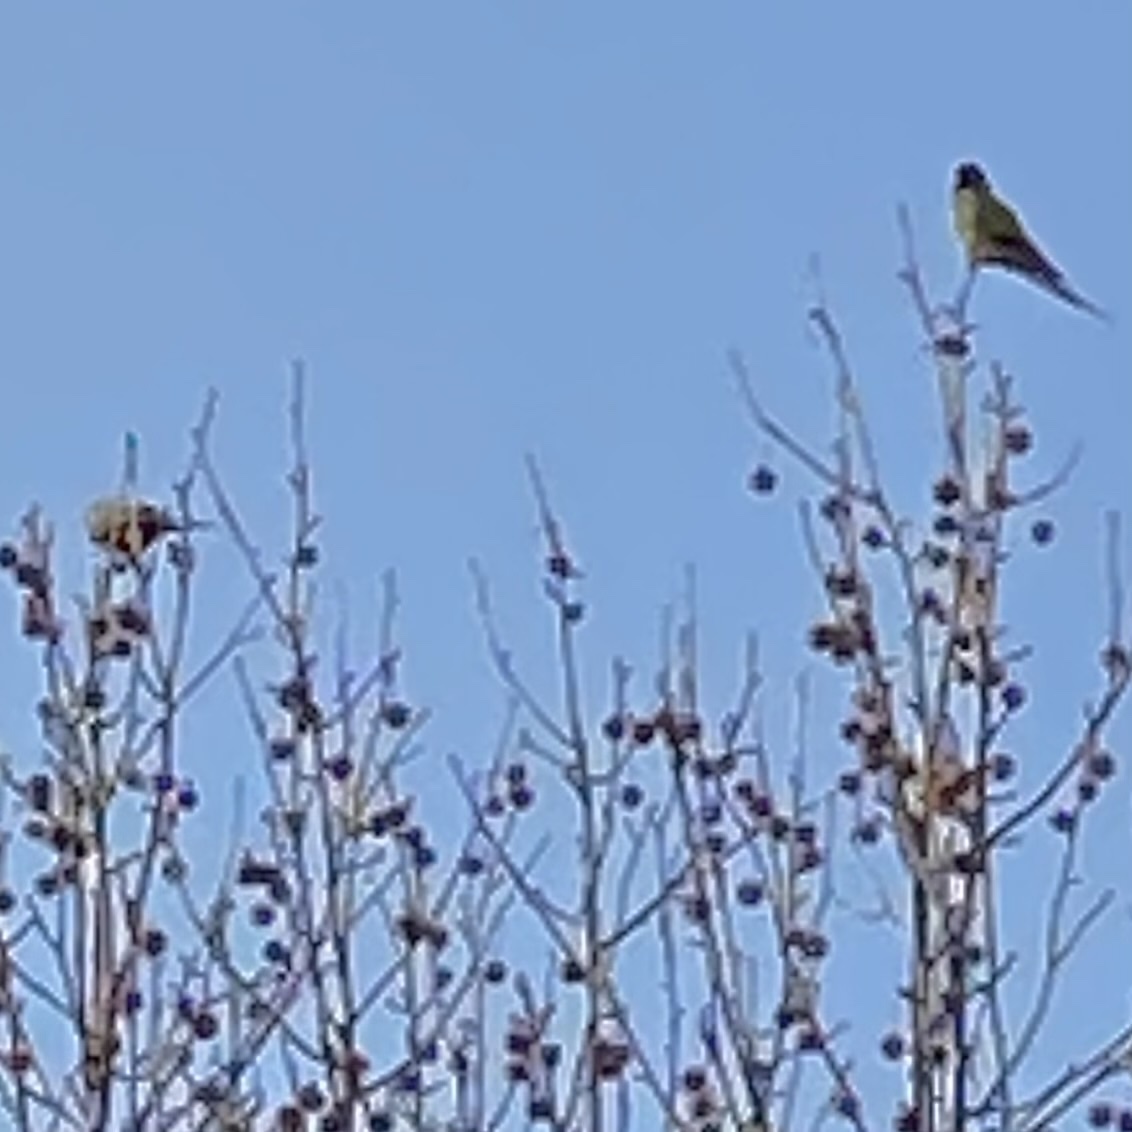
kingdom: Animalia
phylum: Chordata
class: Aves
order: Psittaciformes
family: Psittacidae
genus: Nandayus
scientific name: Nandayus nenday
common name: Nanday parakeet
